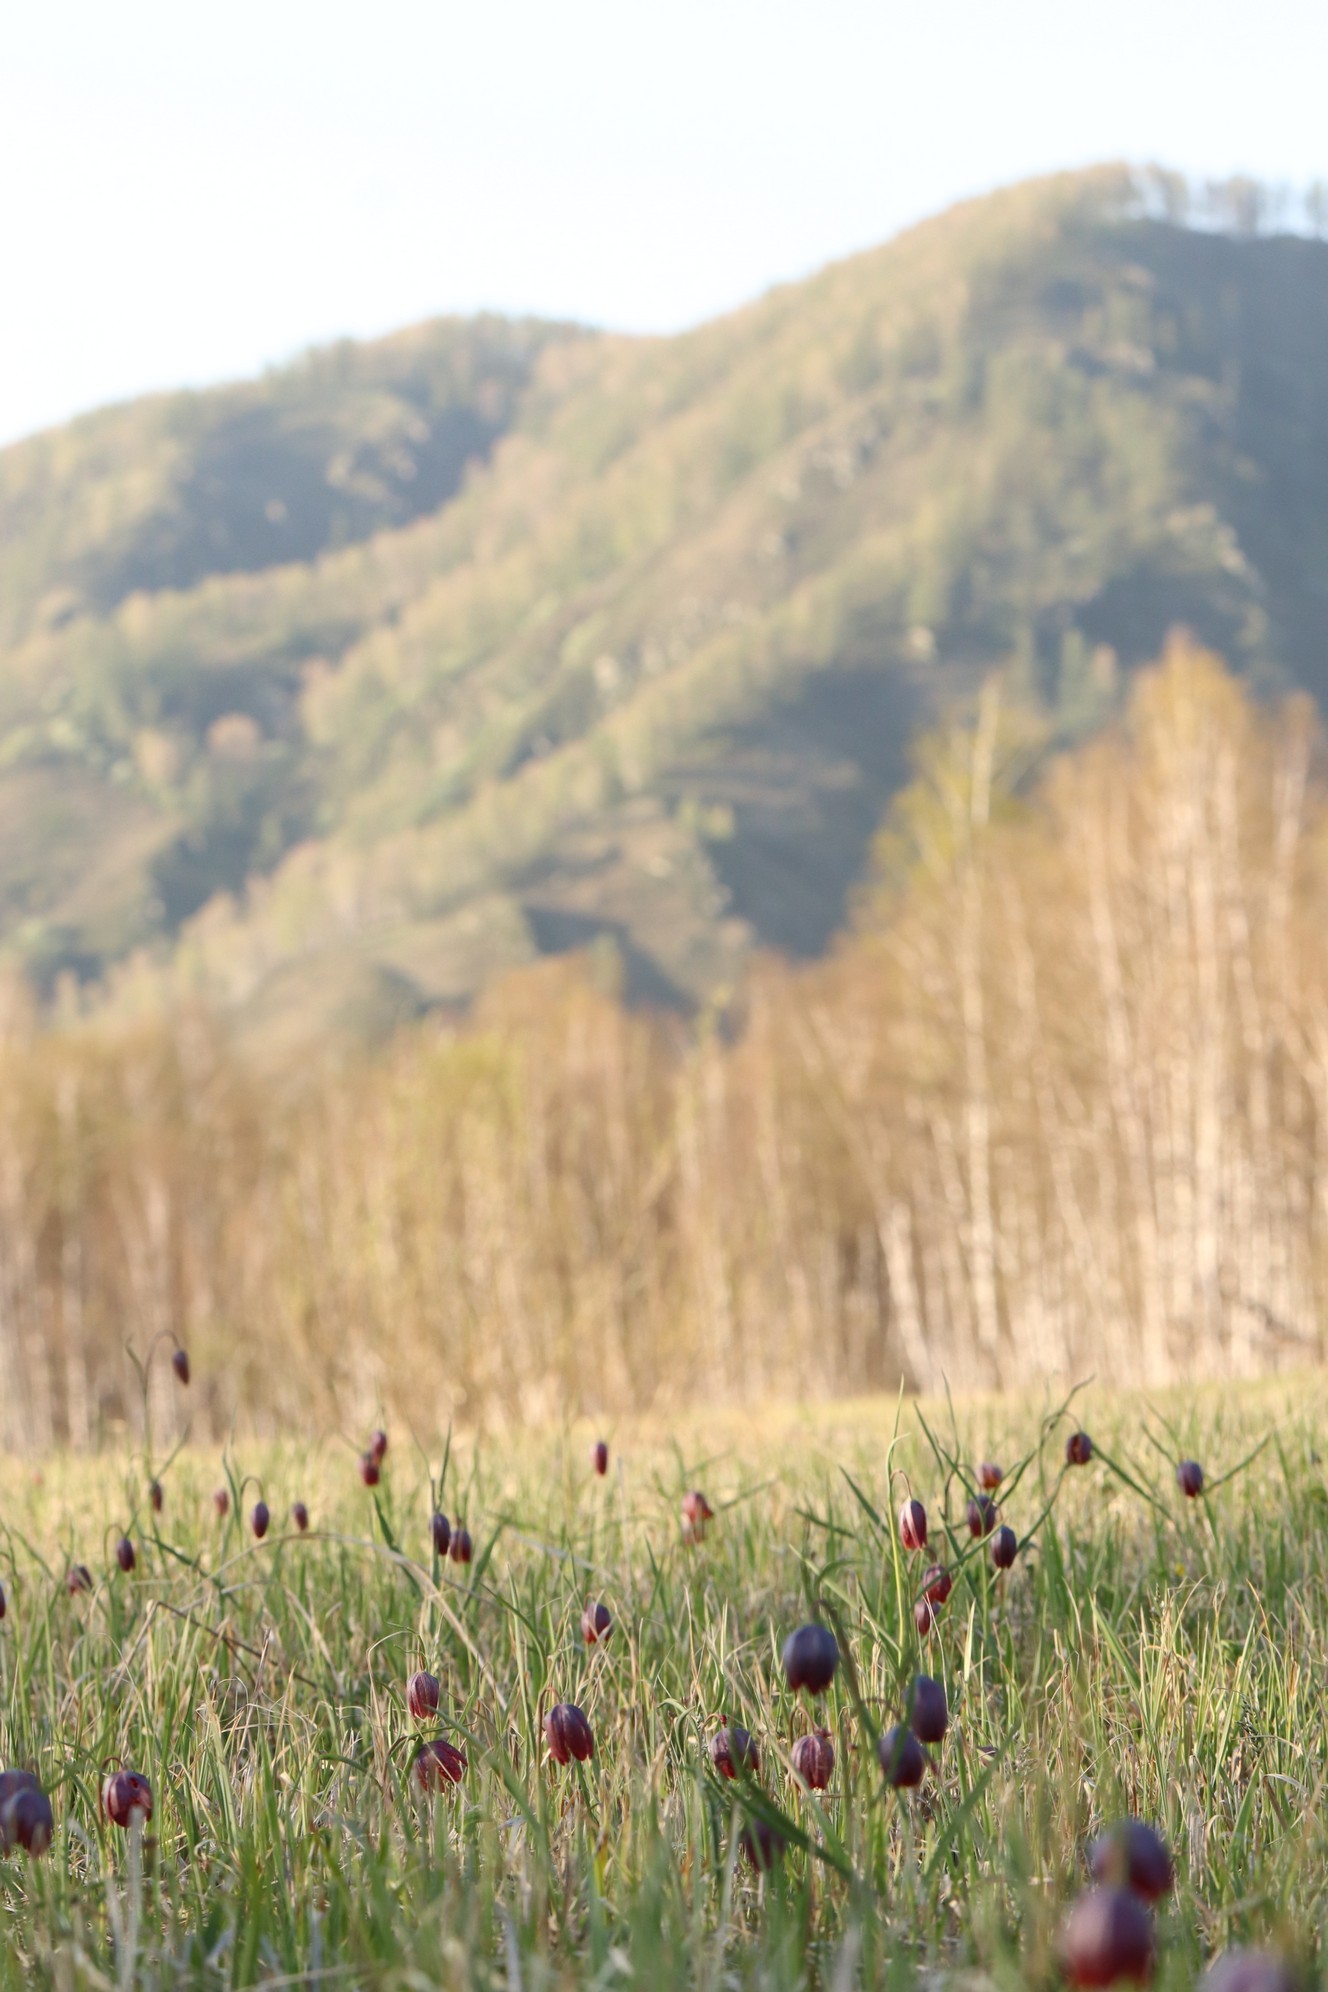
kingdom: Plantae
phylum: Tracheophyta
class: Liliopsida
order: Liliales
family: Liliaceae
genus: Fritillaria
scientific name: Fritillaria meleagris
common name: Fritillary
